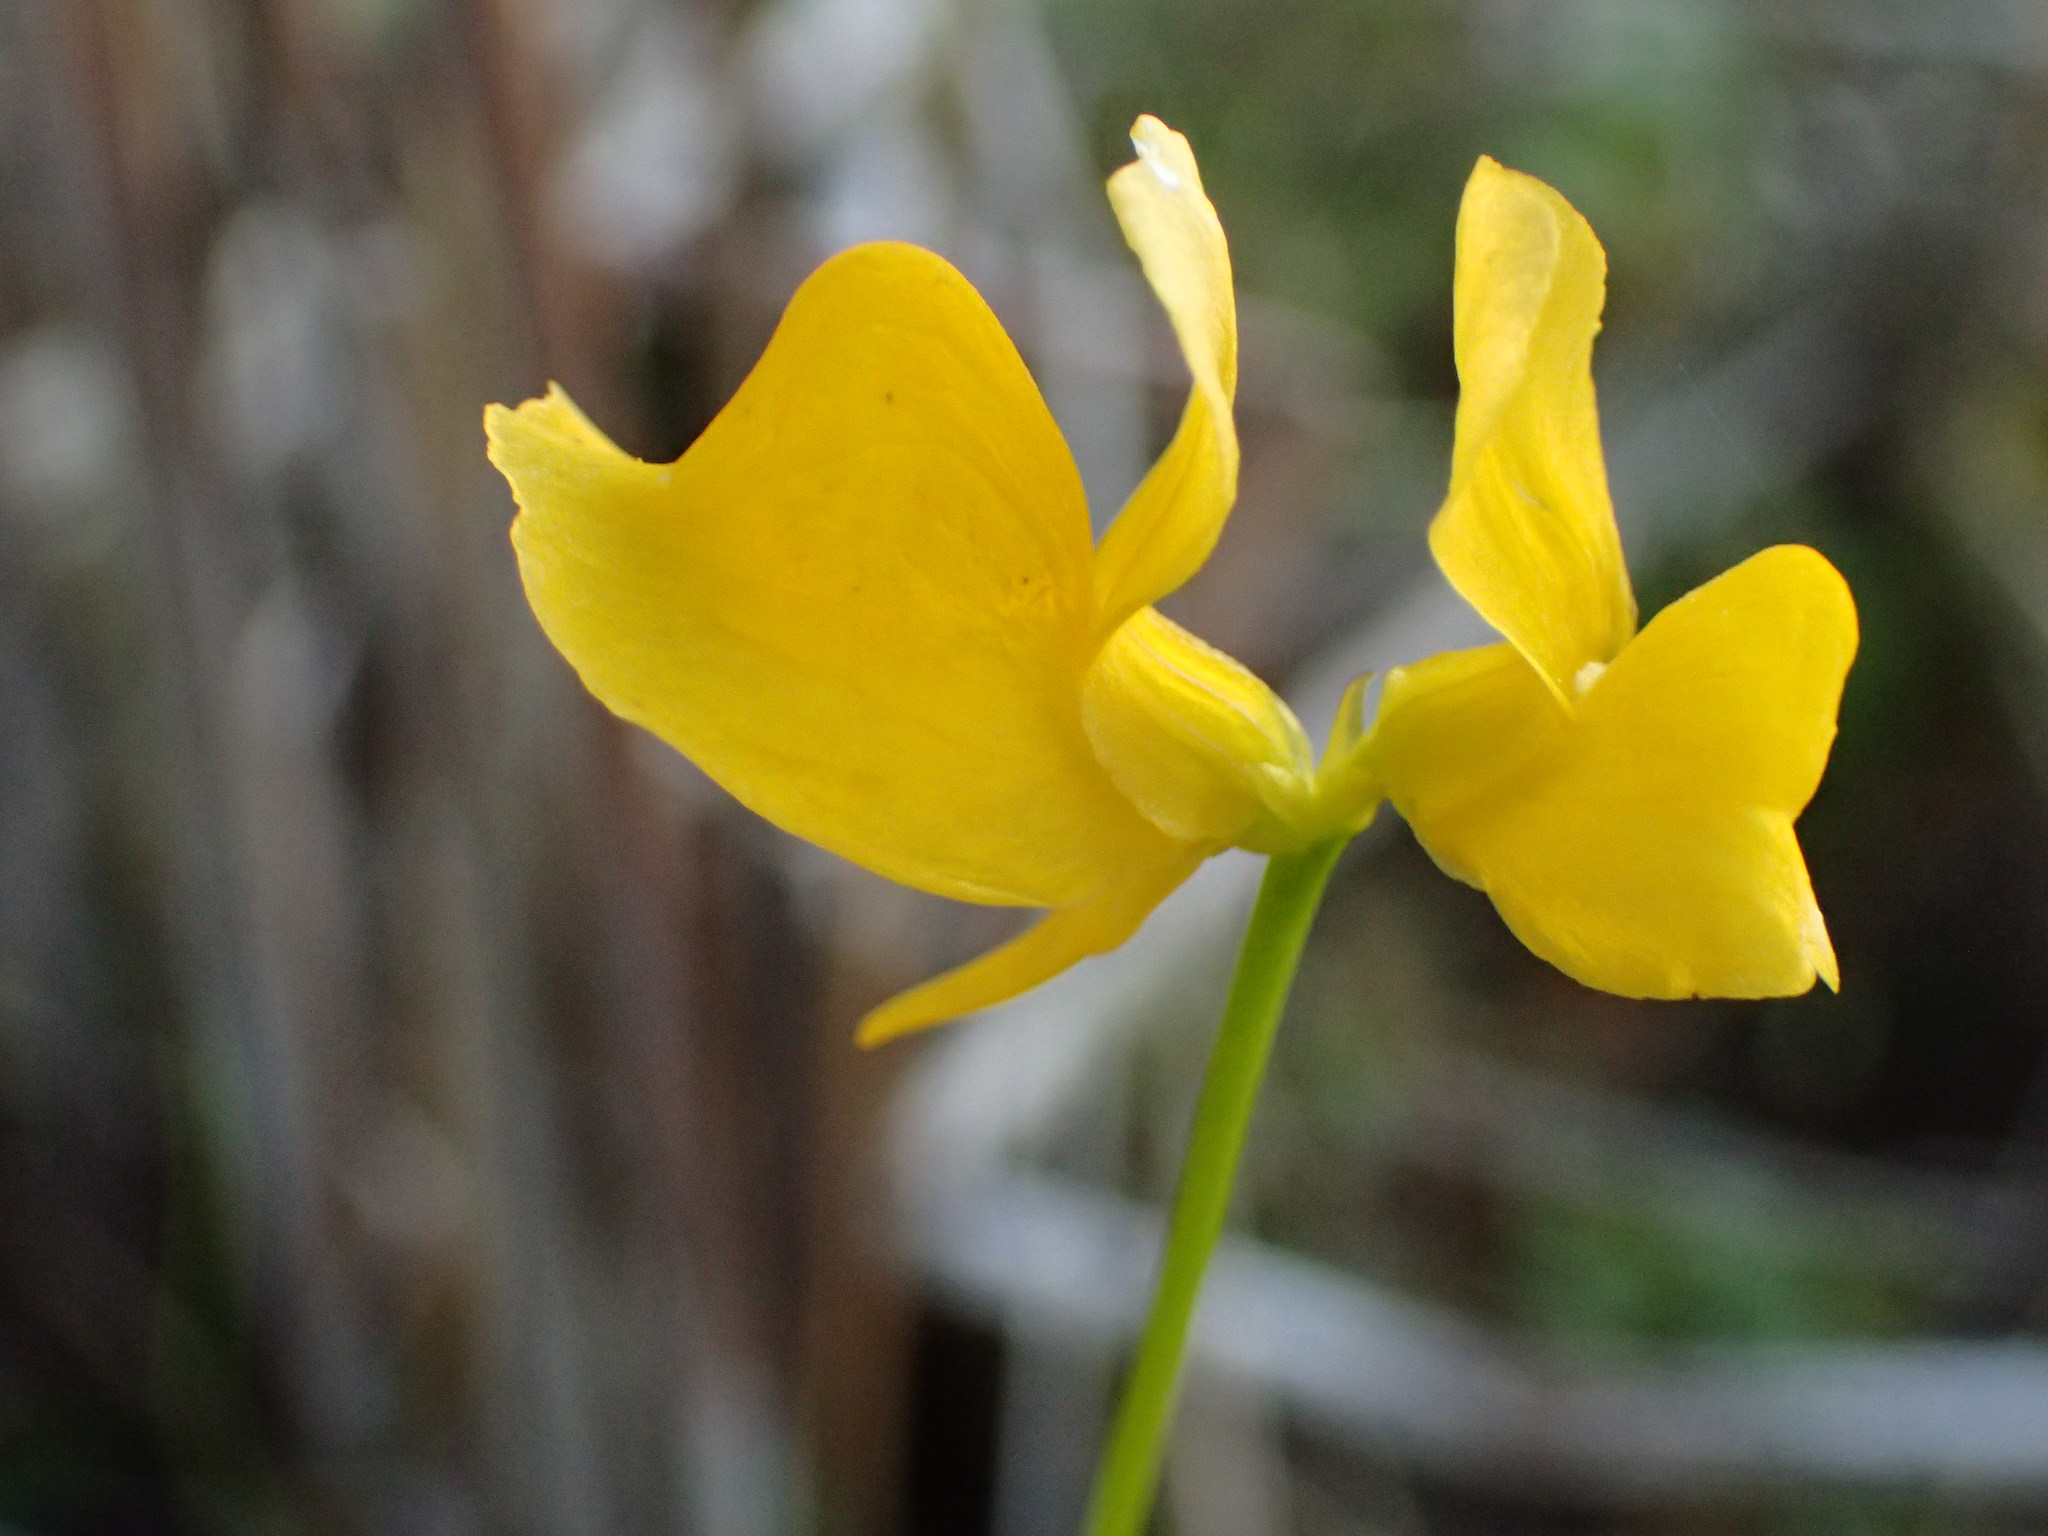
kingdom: Plantae
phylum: Tracheophyta
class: Magnoliopsida
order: Lamiales
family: Lentibulariaceae
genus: Utricularia
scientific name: Utricularia cornuta
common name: Horned bladderwort
